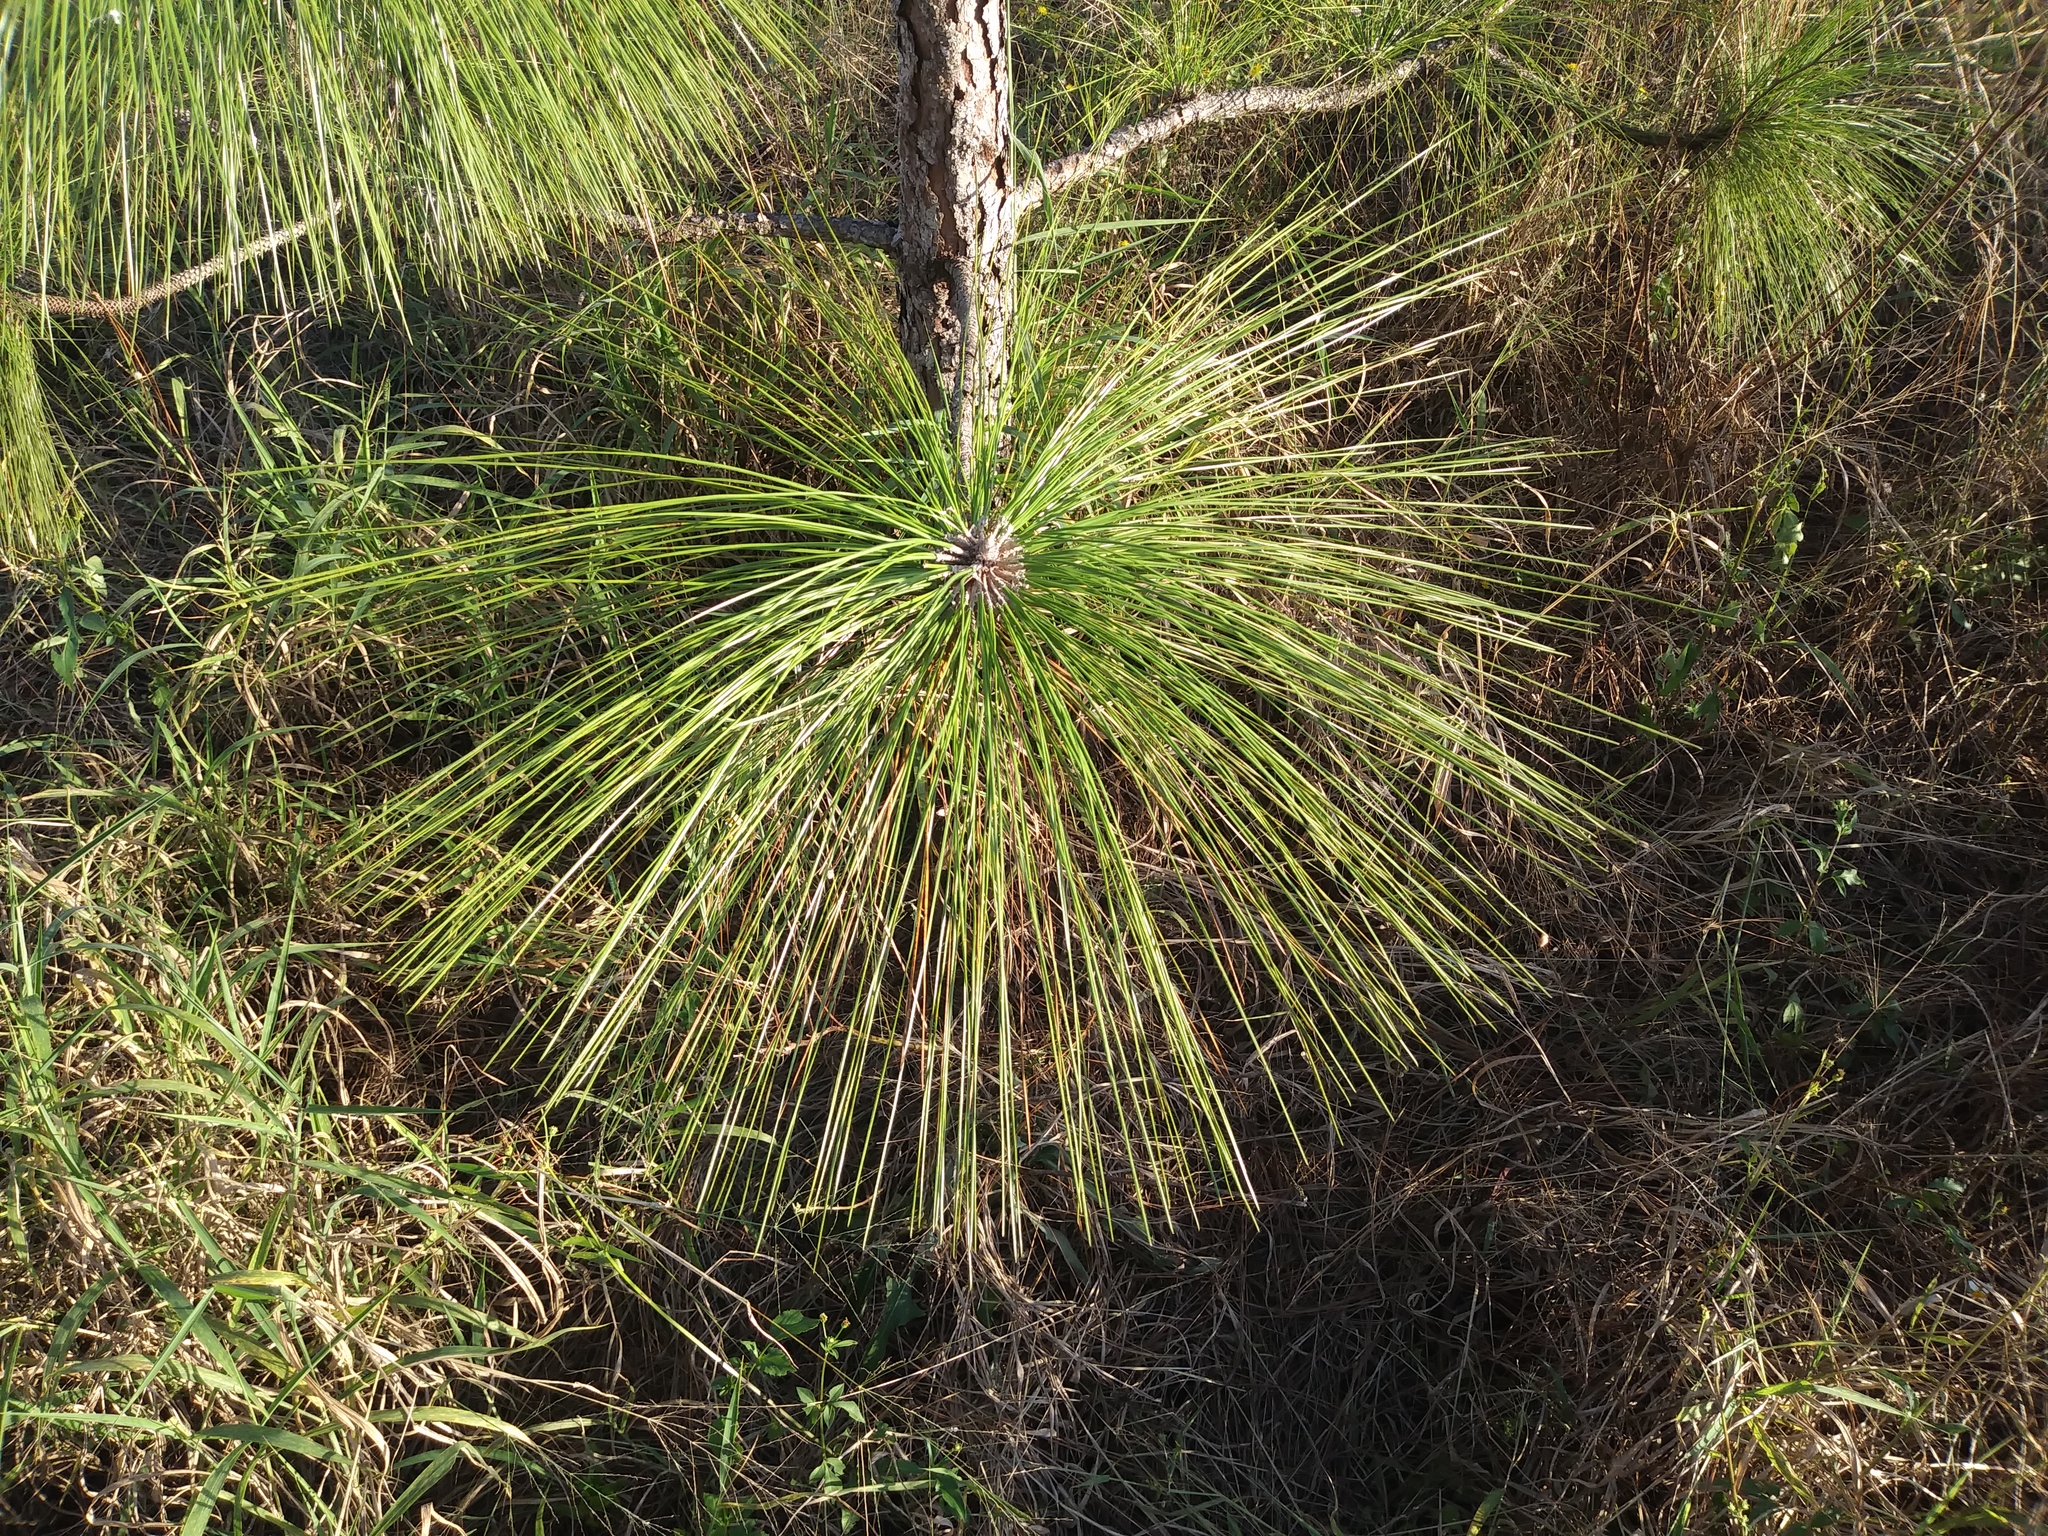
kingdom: Plantae
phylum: Tracheophyta
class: Pinopsida
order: Pinales
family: Pinaceae
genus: Pinus
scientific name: Pinus palustris
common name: Longleaf pine
